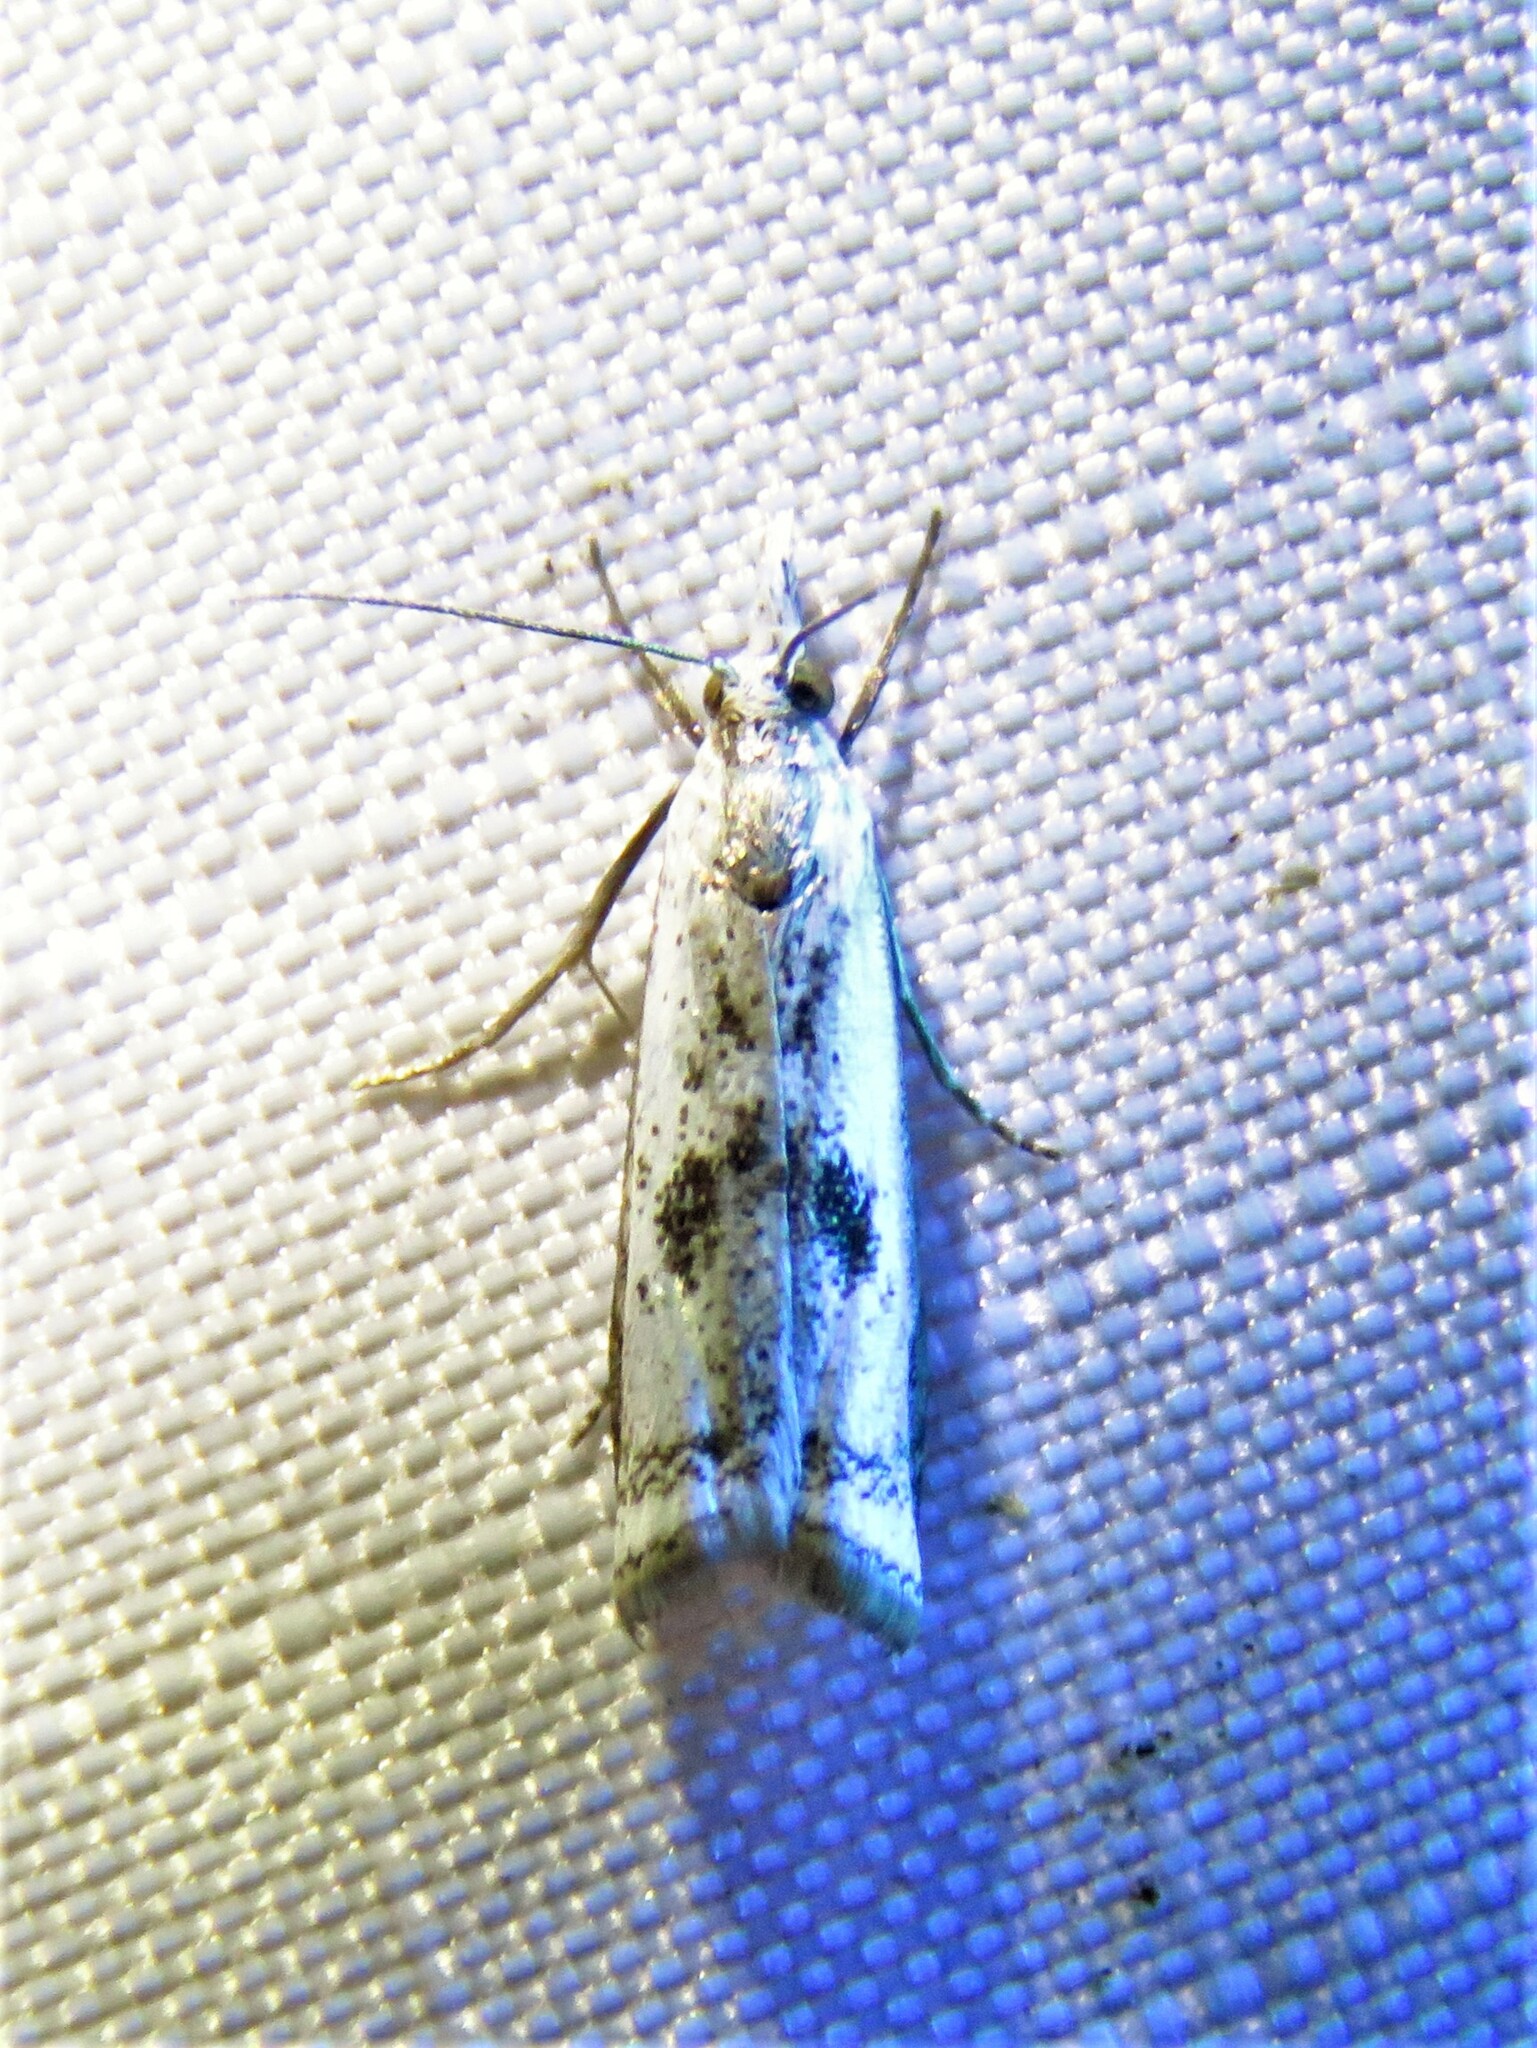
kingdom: Animalia
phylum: Arthropoda
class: Insecta
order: Lepidoptera
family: Crambidae
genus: Microcrambus
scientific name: Microcrambus croesus
